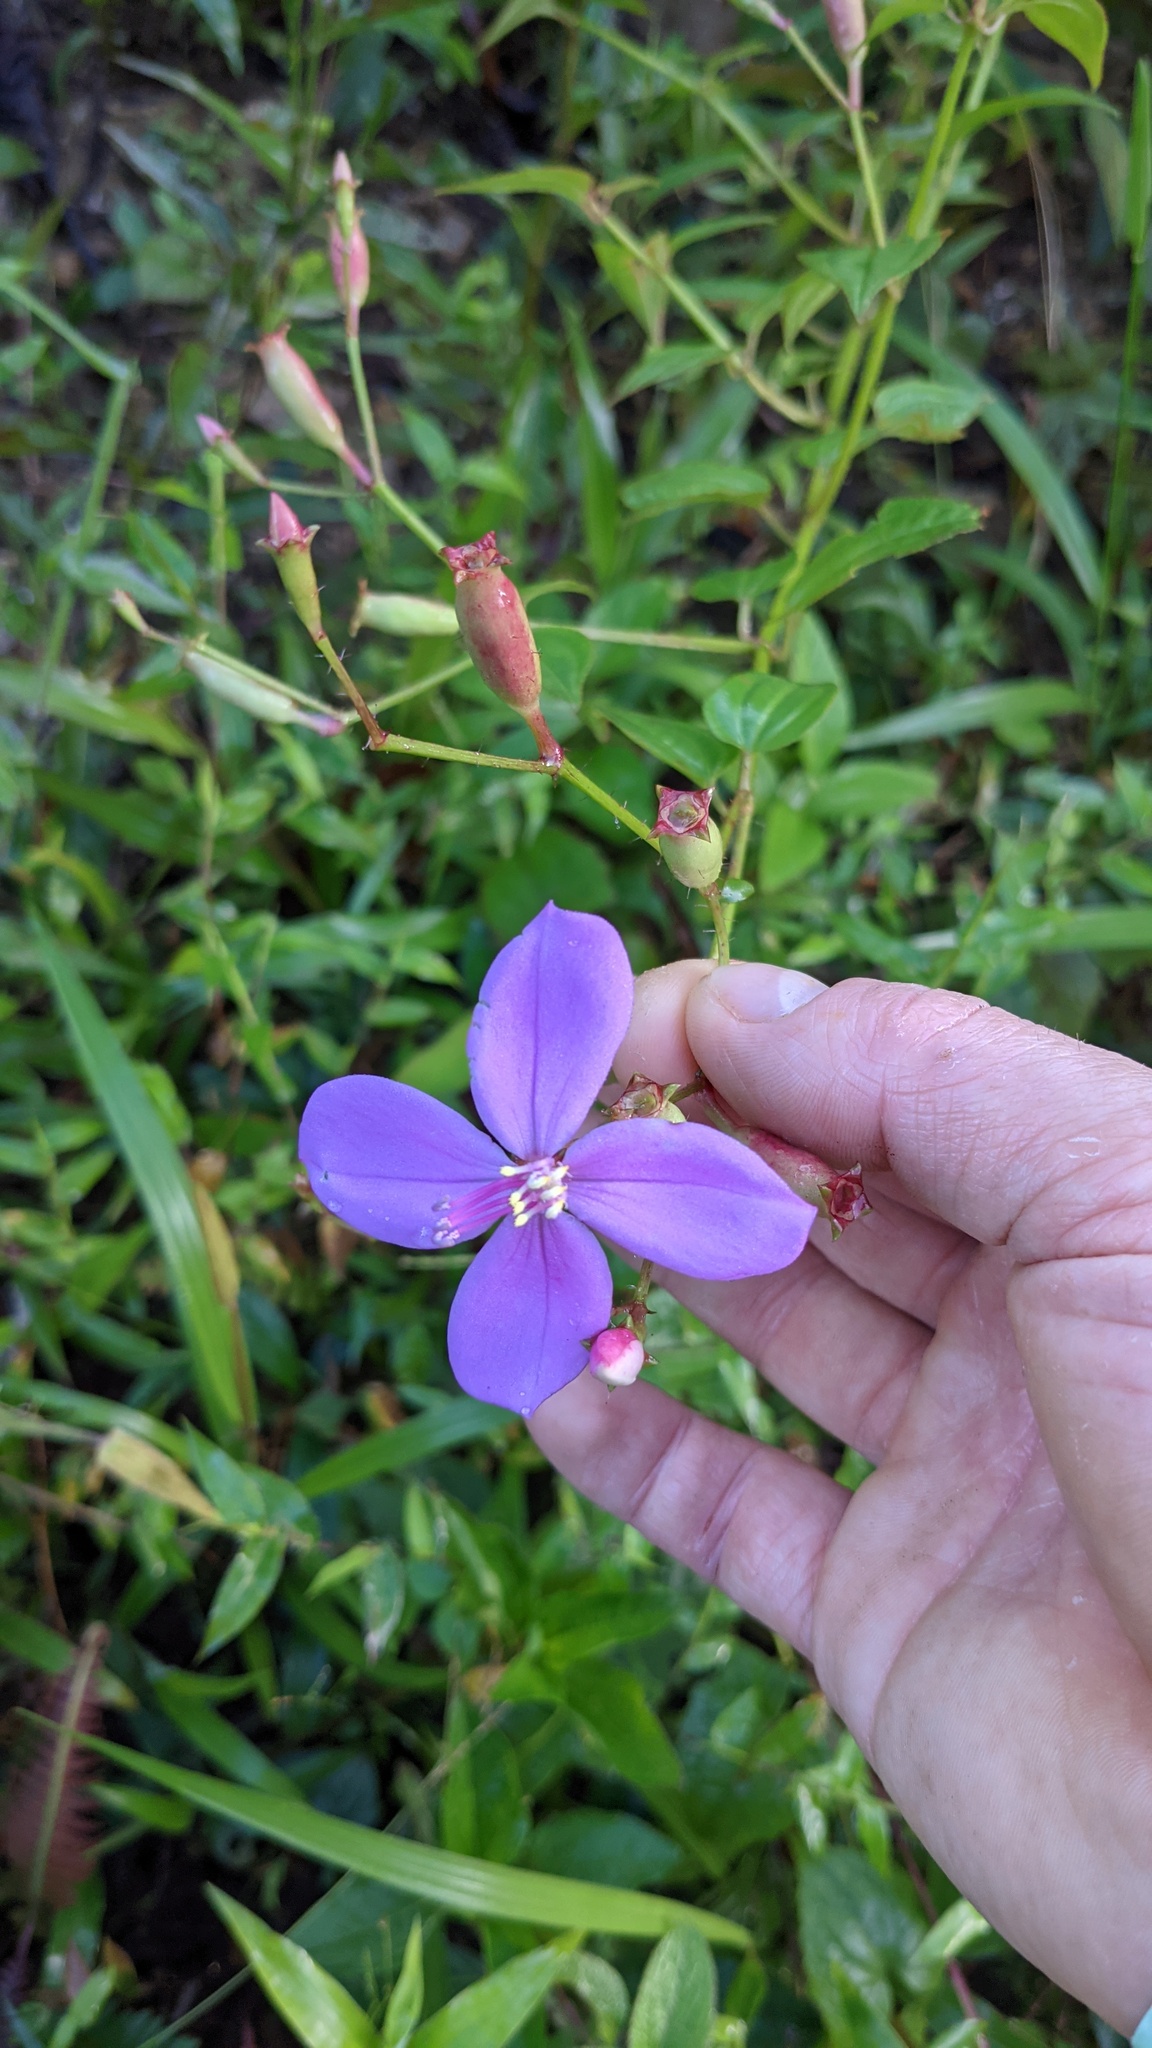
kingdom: Plantae
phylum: Tracheophyta
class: Magnoliopsida
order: Myrtales
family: Melastomataceae
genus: Arthrostemma
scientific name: Arthrostemma ciliatum
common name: Everblooming eavender
